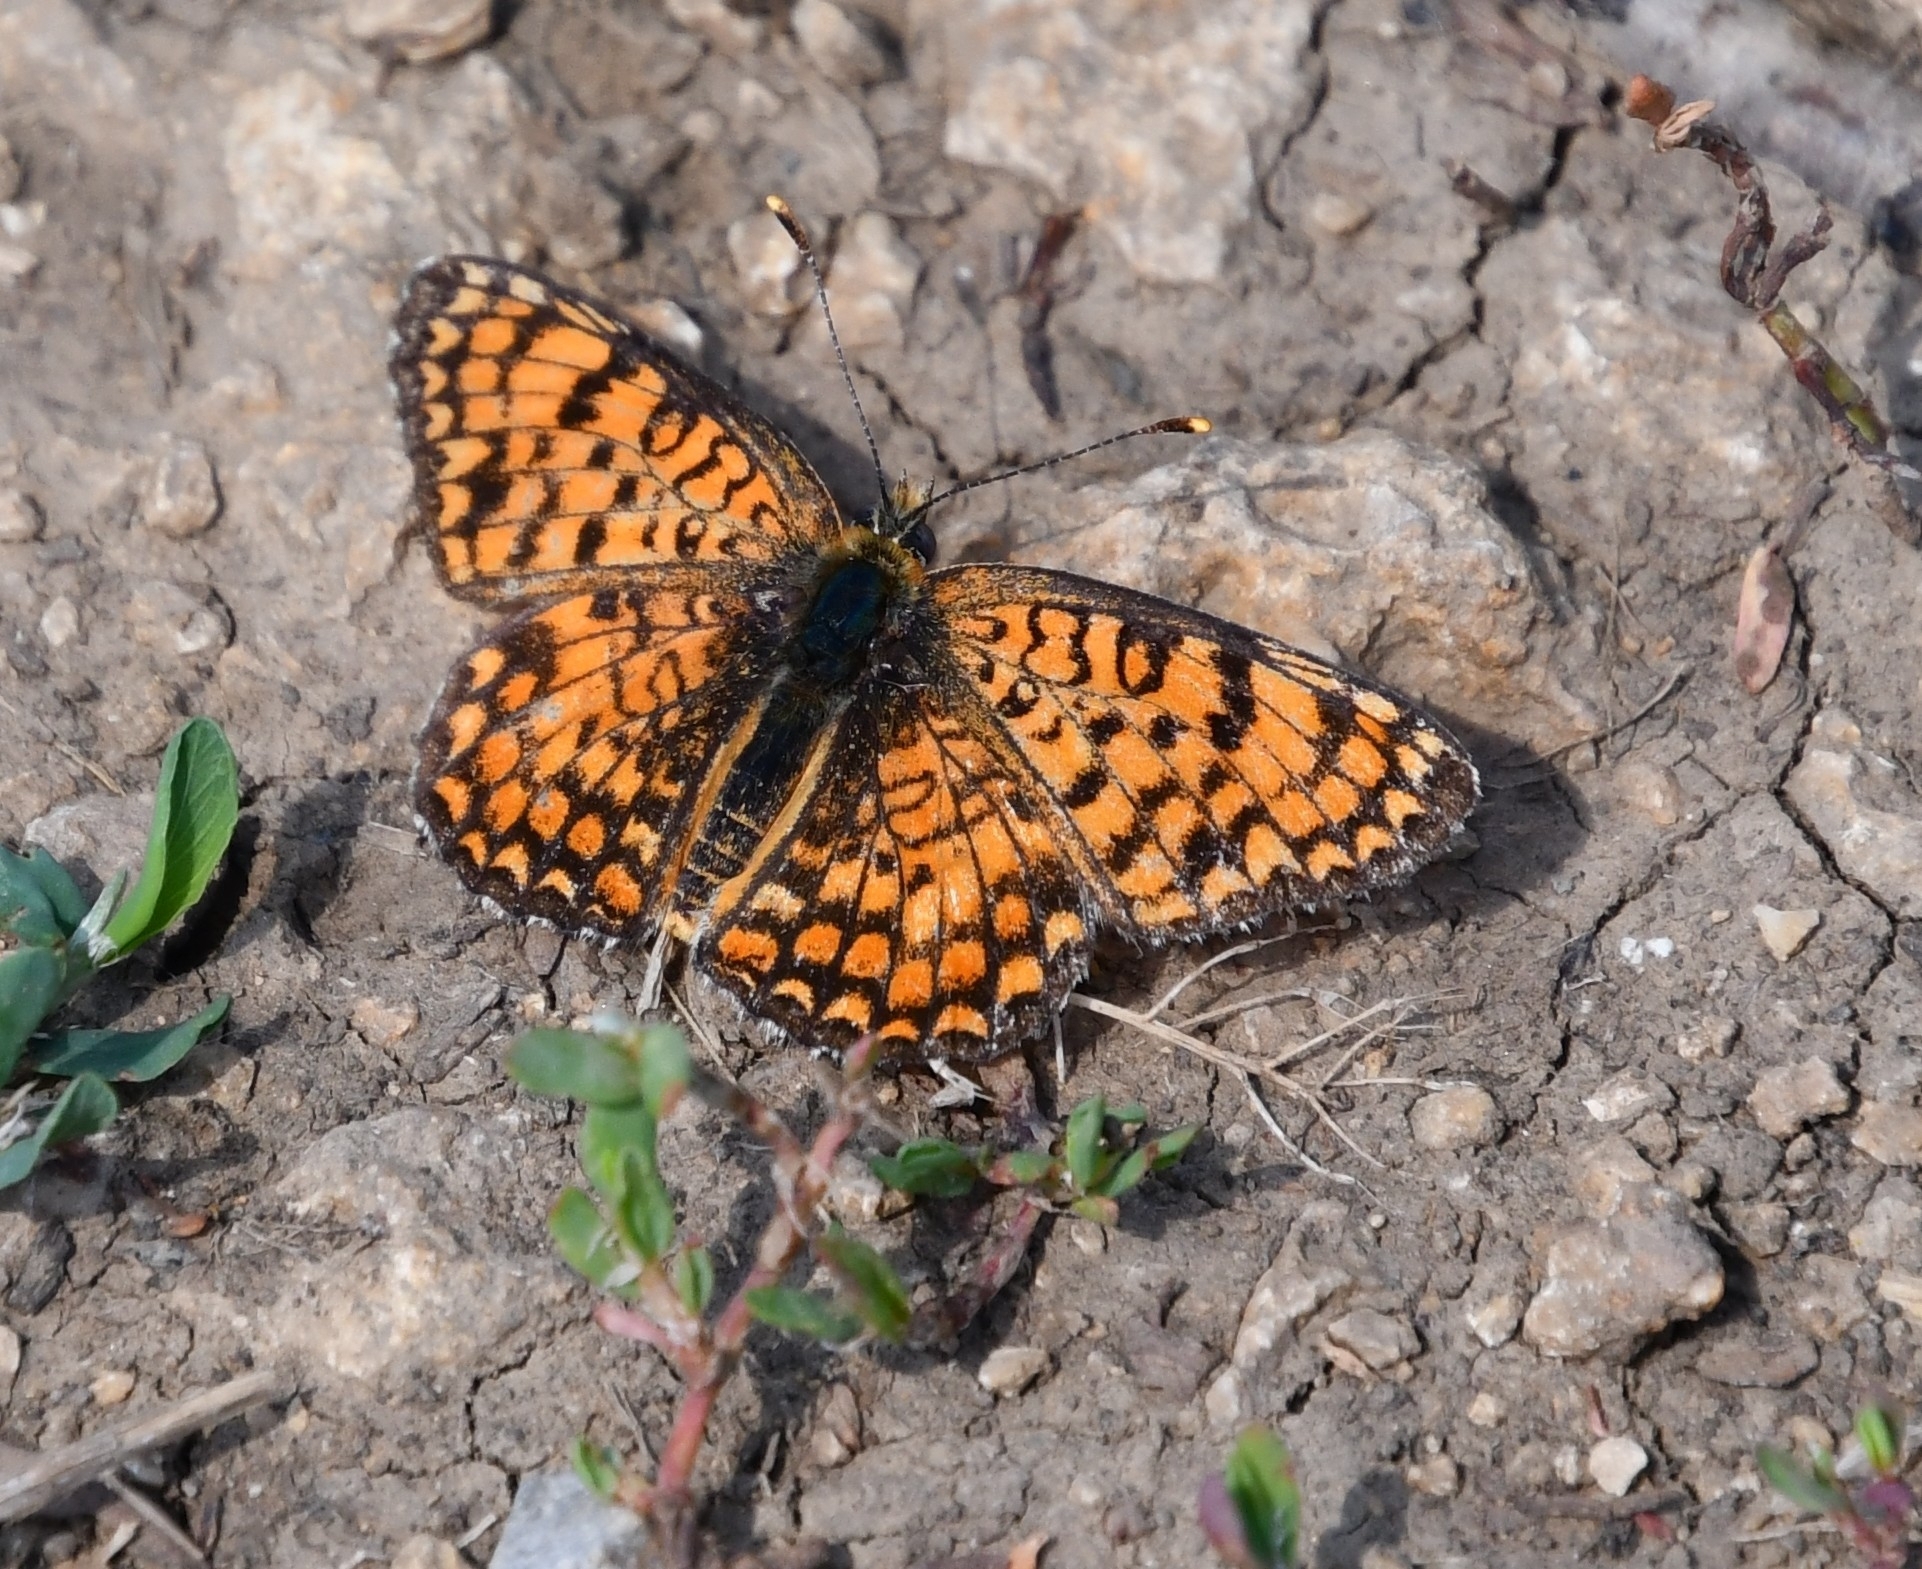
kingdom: Animalia
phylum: Arthropoda
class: Insecta
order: Lepidoptera
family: Nymphalidae
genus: Melitaea
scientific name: Melitaea phoebe
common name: Knapweed fritillary
